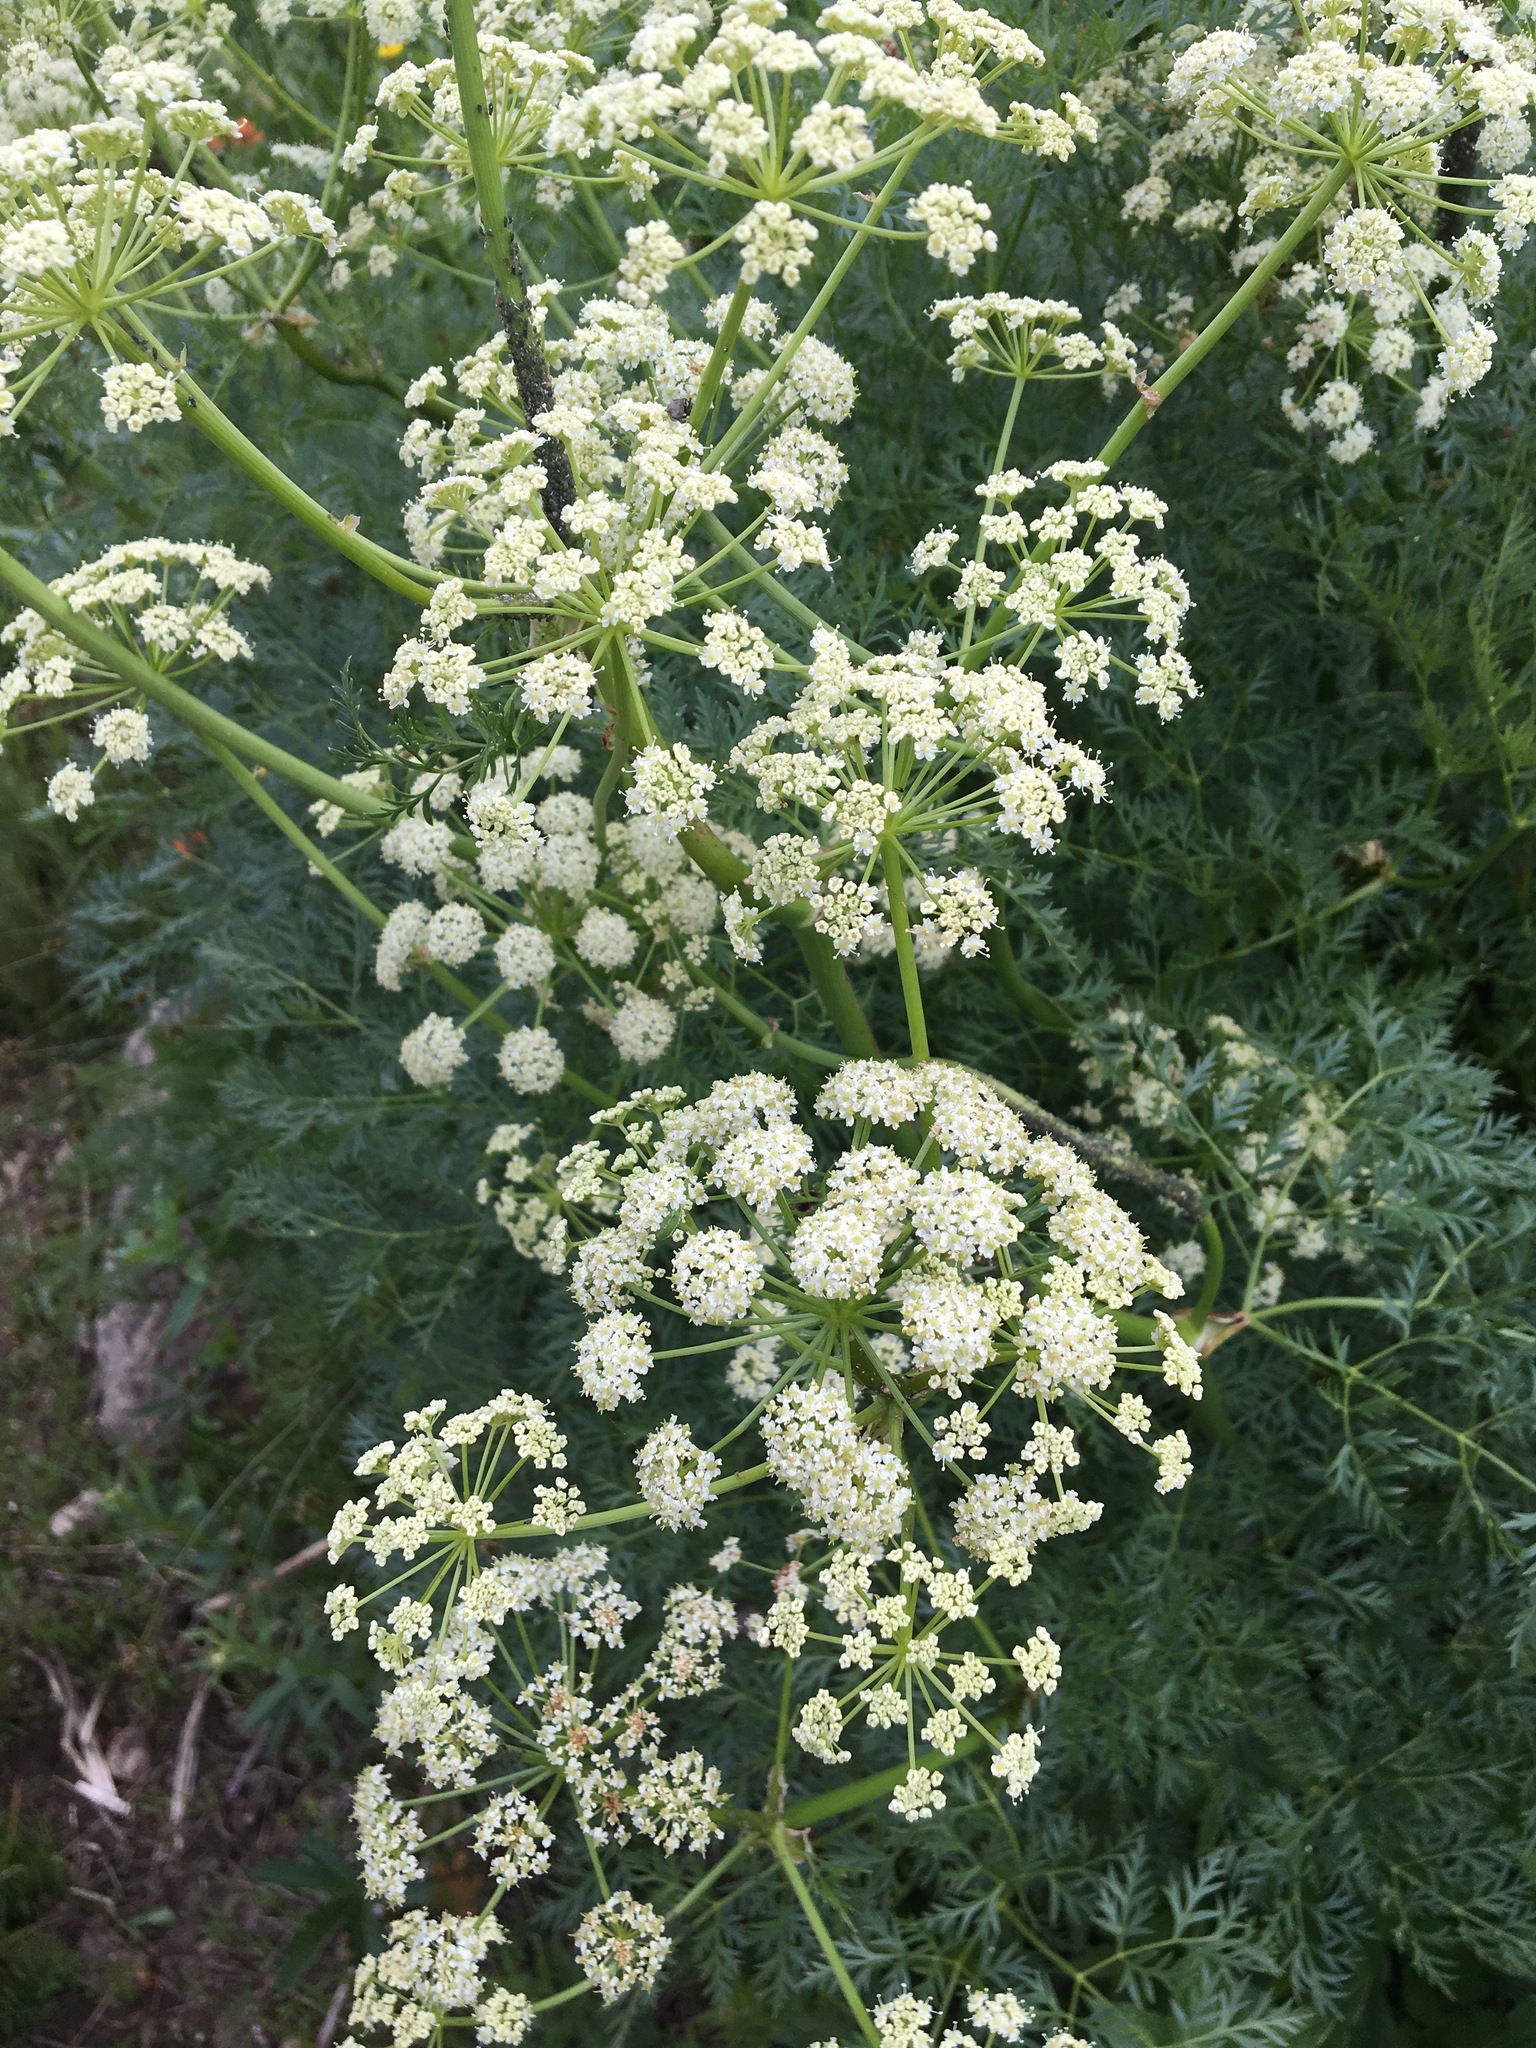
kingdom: Plantae
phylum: Tracheophyta
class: Magnoliopsida
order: Apiales
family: Apiaceae
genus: Ligusticum
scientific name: Ligusticum filicinum
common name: Fernleaf licorice-root
